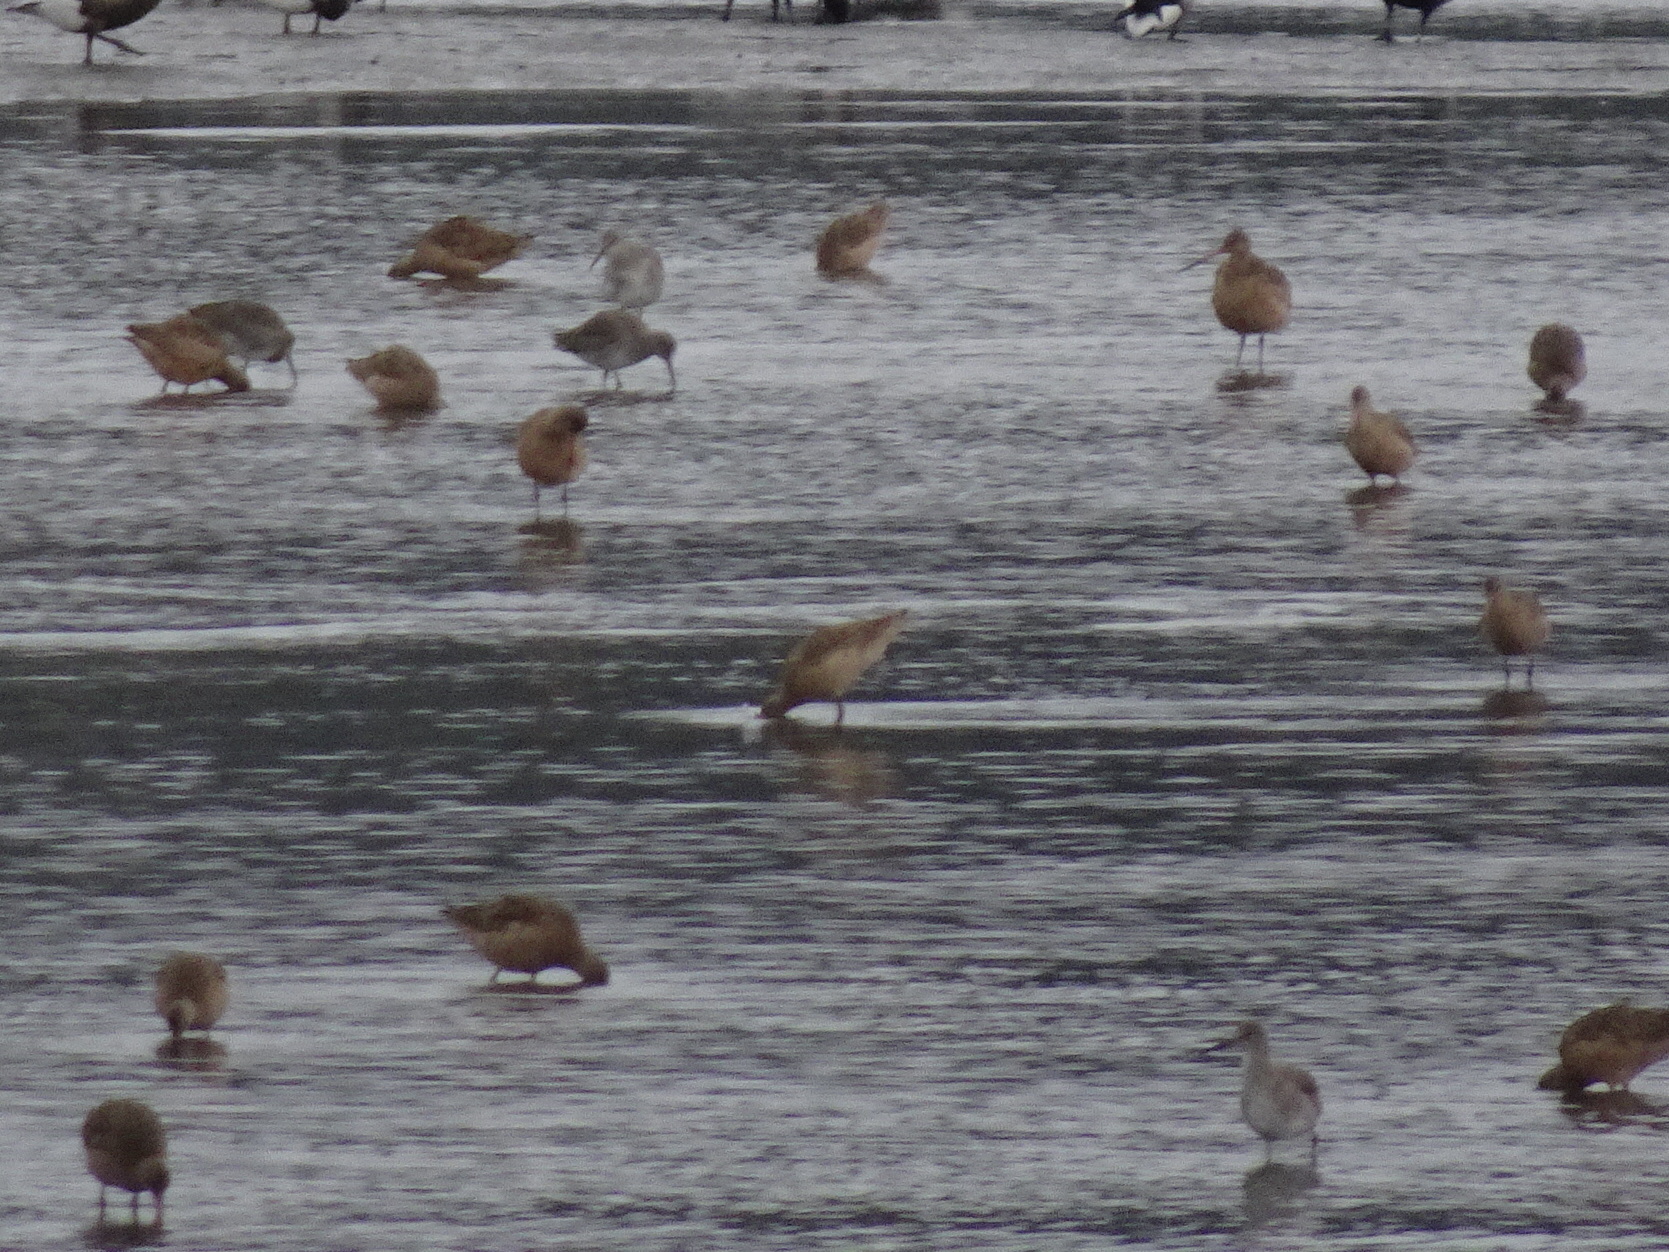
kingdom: Animalia
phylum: Chordata
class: Aves
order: Charadriiformes
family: Scolopacidae
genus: Tringa
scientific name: Tringa semipalmata
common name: Willet
